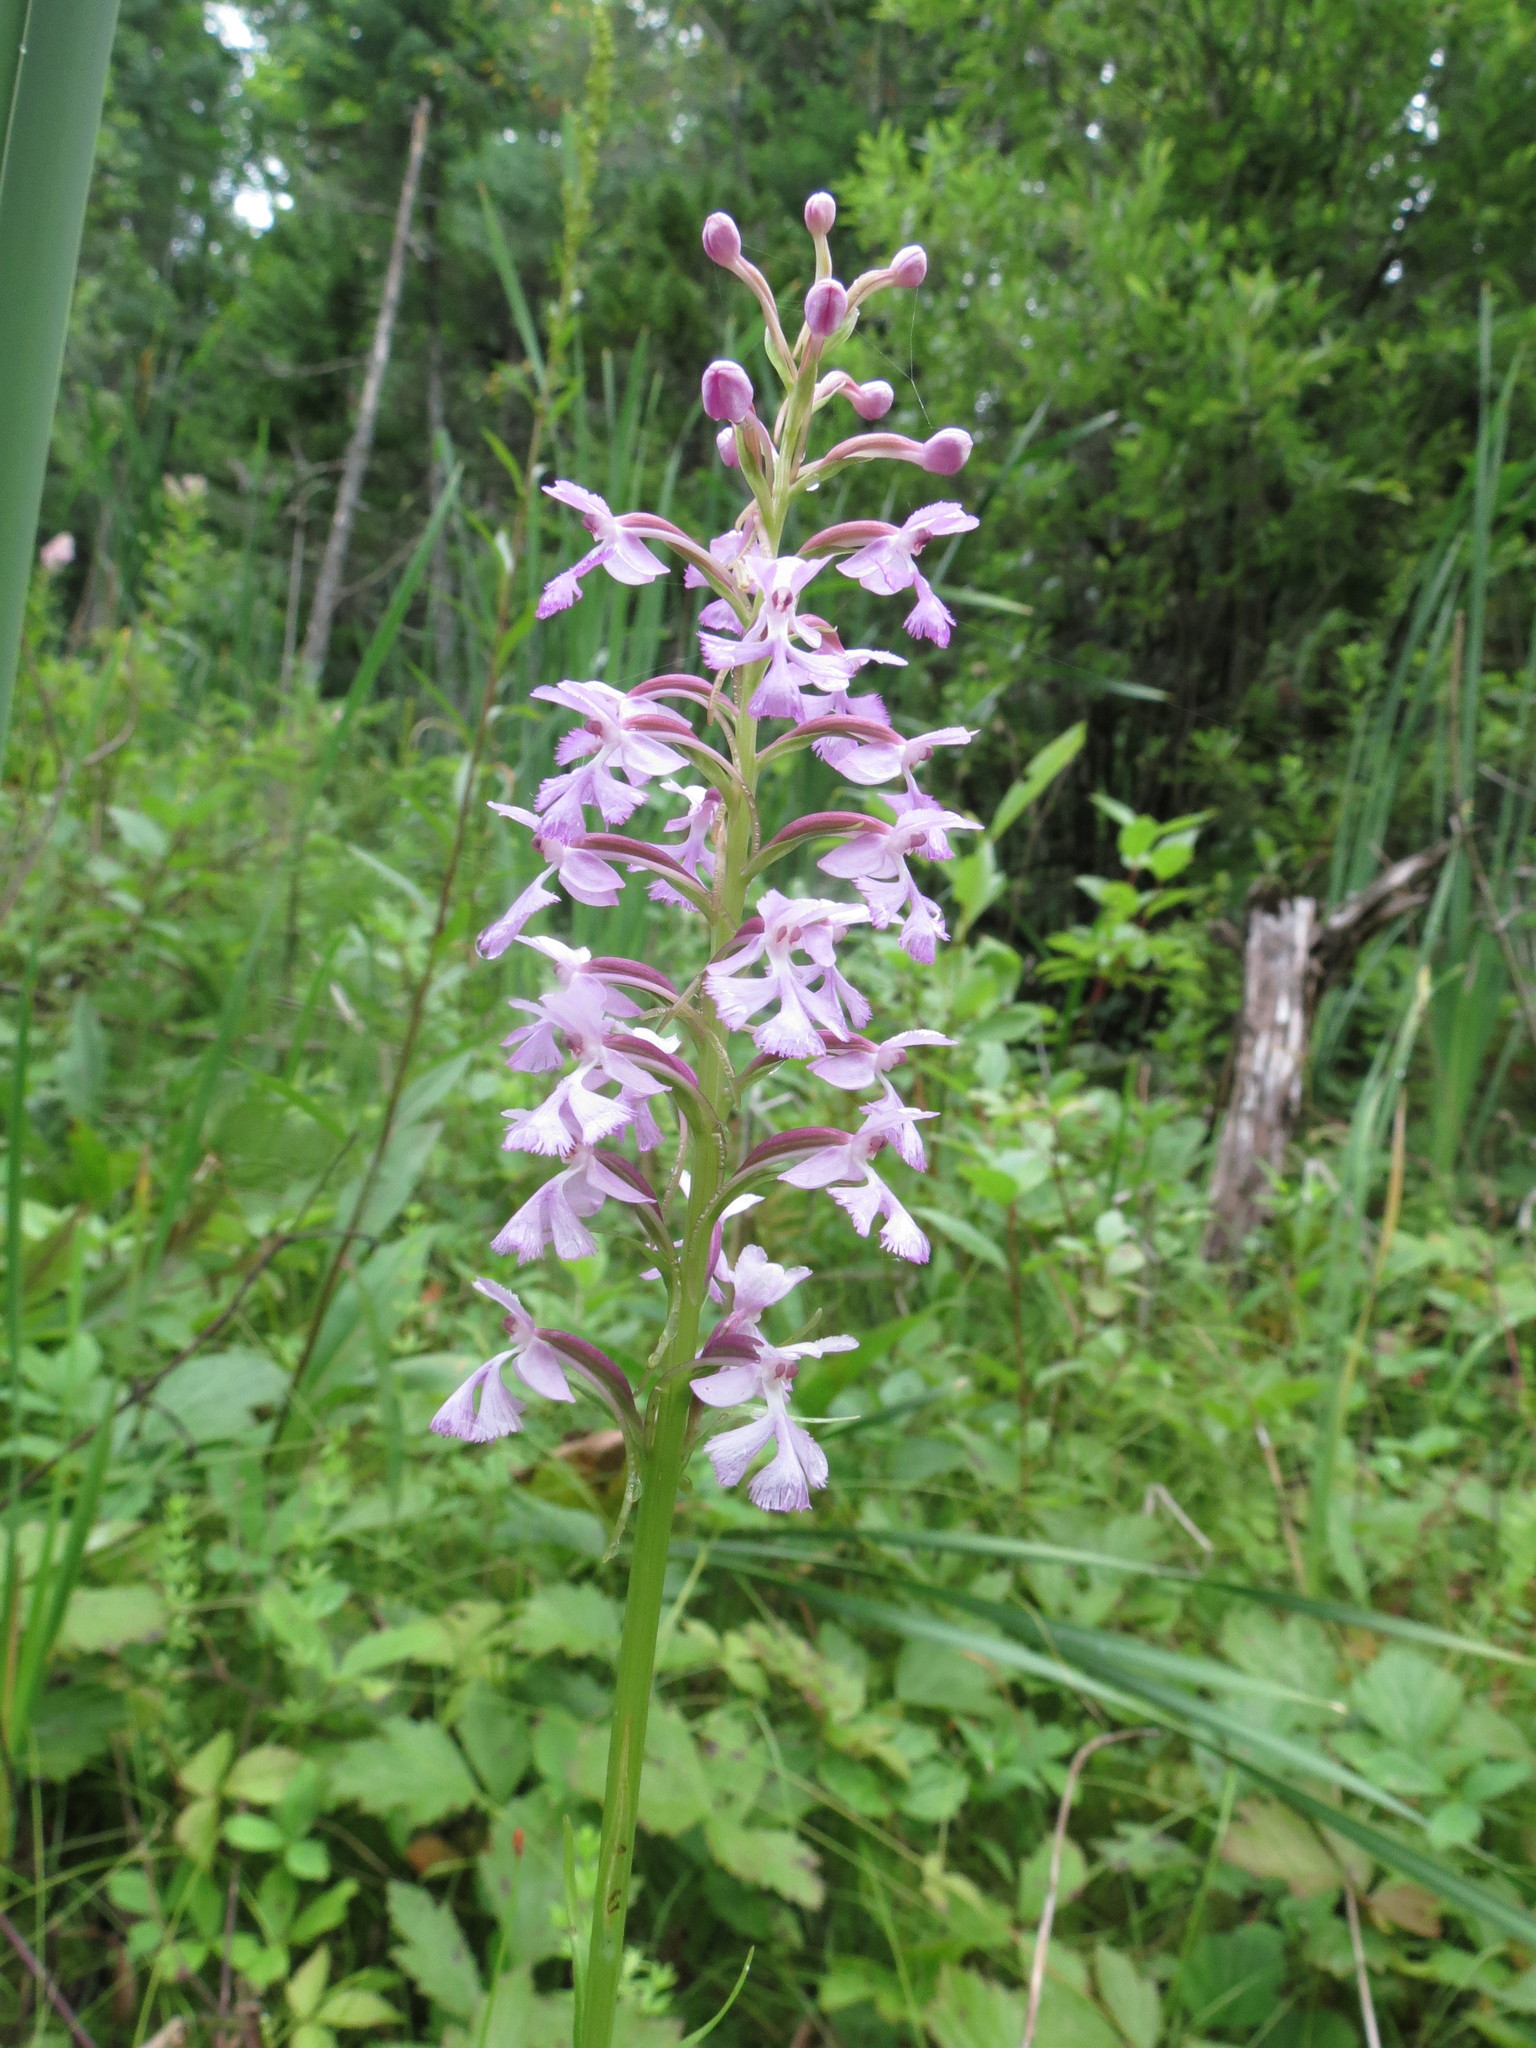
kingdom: Plantae
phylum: Tracheophyta
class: Liliopsida
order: Asparagales
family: Orchidaceae
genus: Platanthera
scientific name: Platanthera psycodes
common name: Lesser purple fringed orchid
